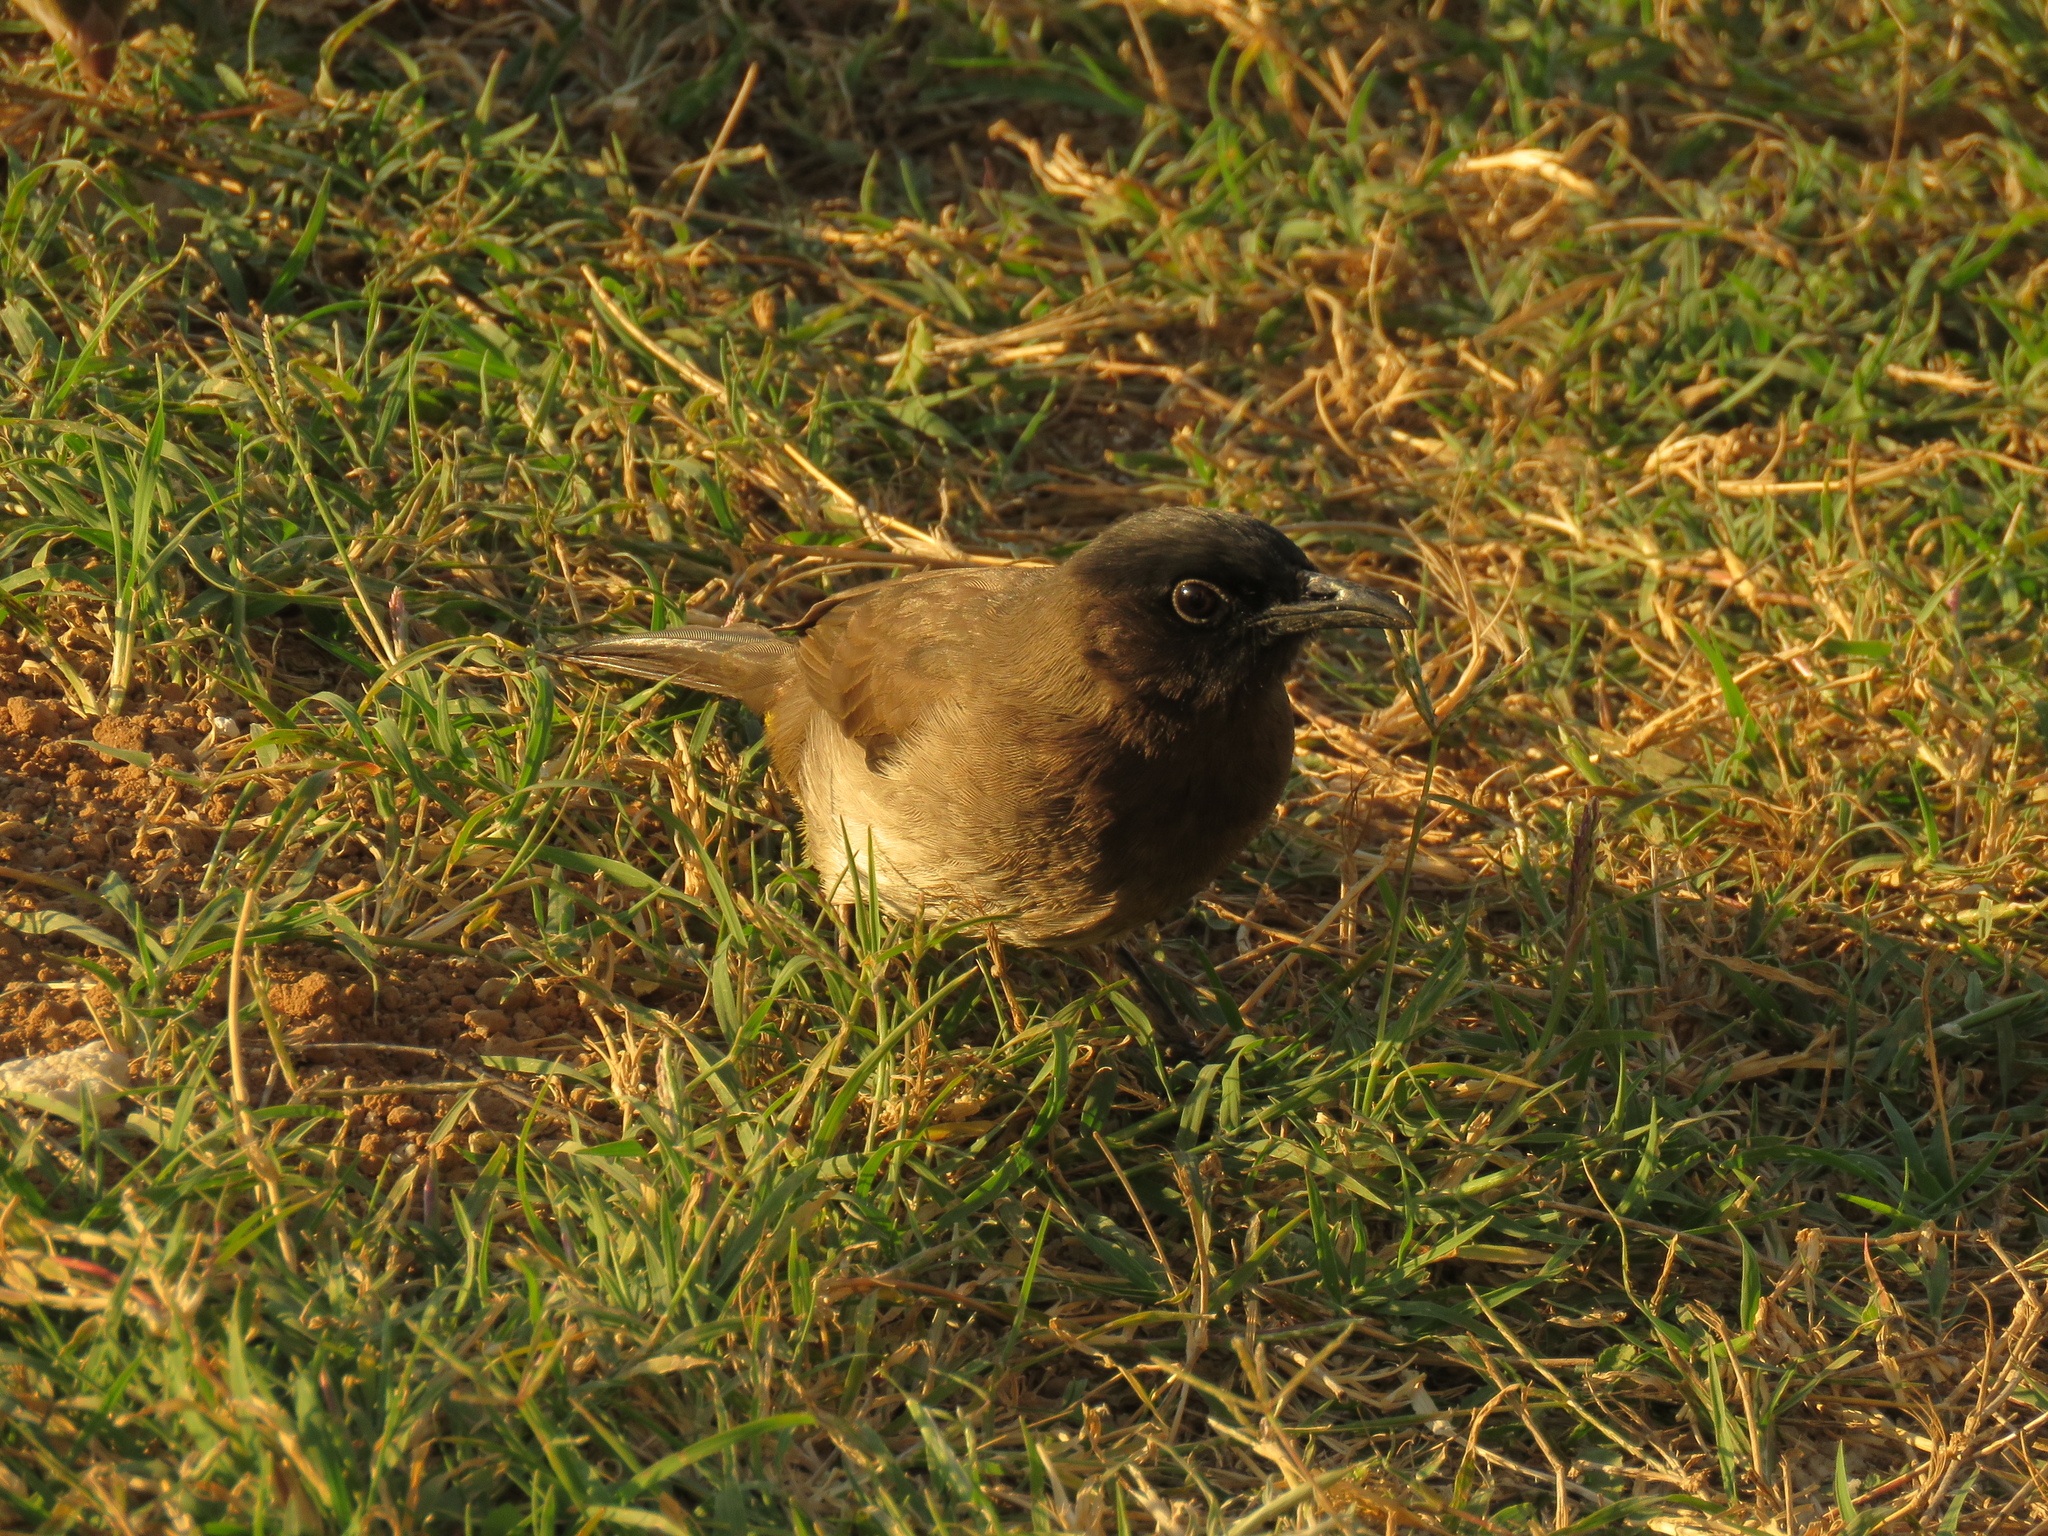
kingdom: Animalia
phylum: Chordata
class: Aves
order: Passeriformes
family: Pycnonotidae
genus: Pycnonotus
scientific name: Pycnonotus barbatus
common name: Common bulbul
